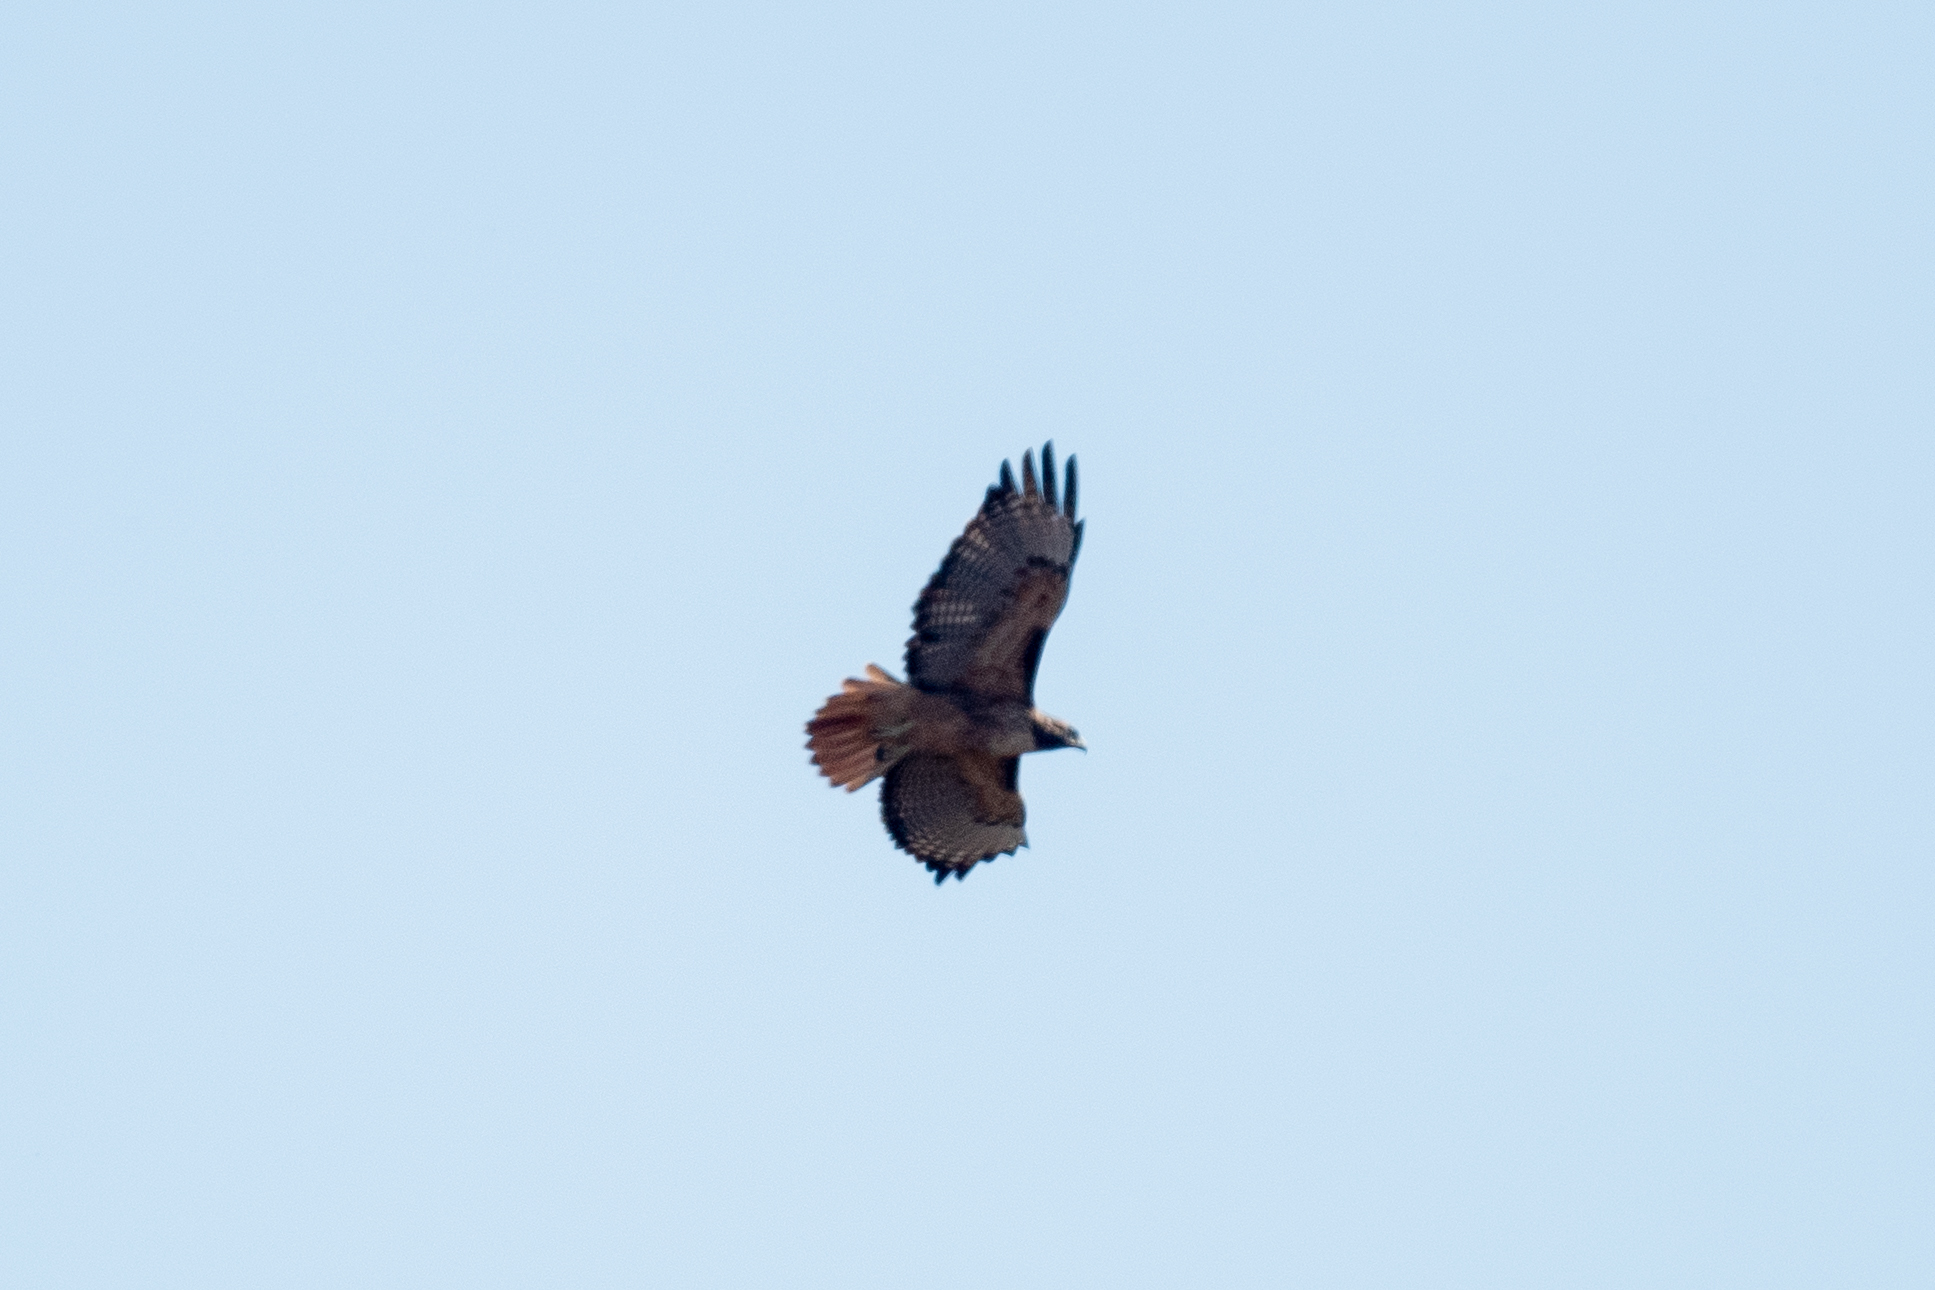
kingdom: Animalia
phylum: Chordata
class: Aves
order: Accipitriformes
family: Accipitridae
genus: Buteo
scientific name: Buteo jamaicensis
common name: Red-tailed hawk
